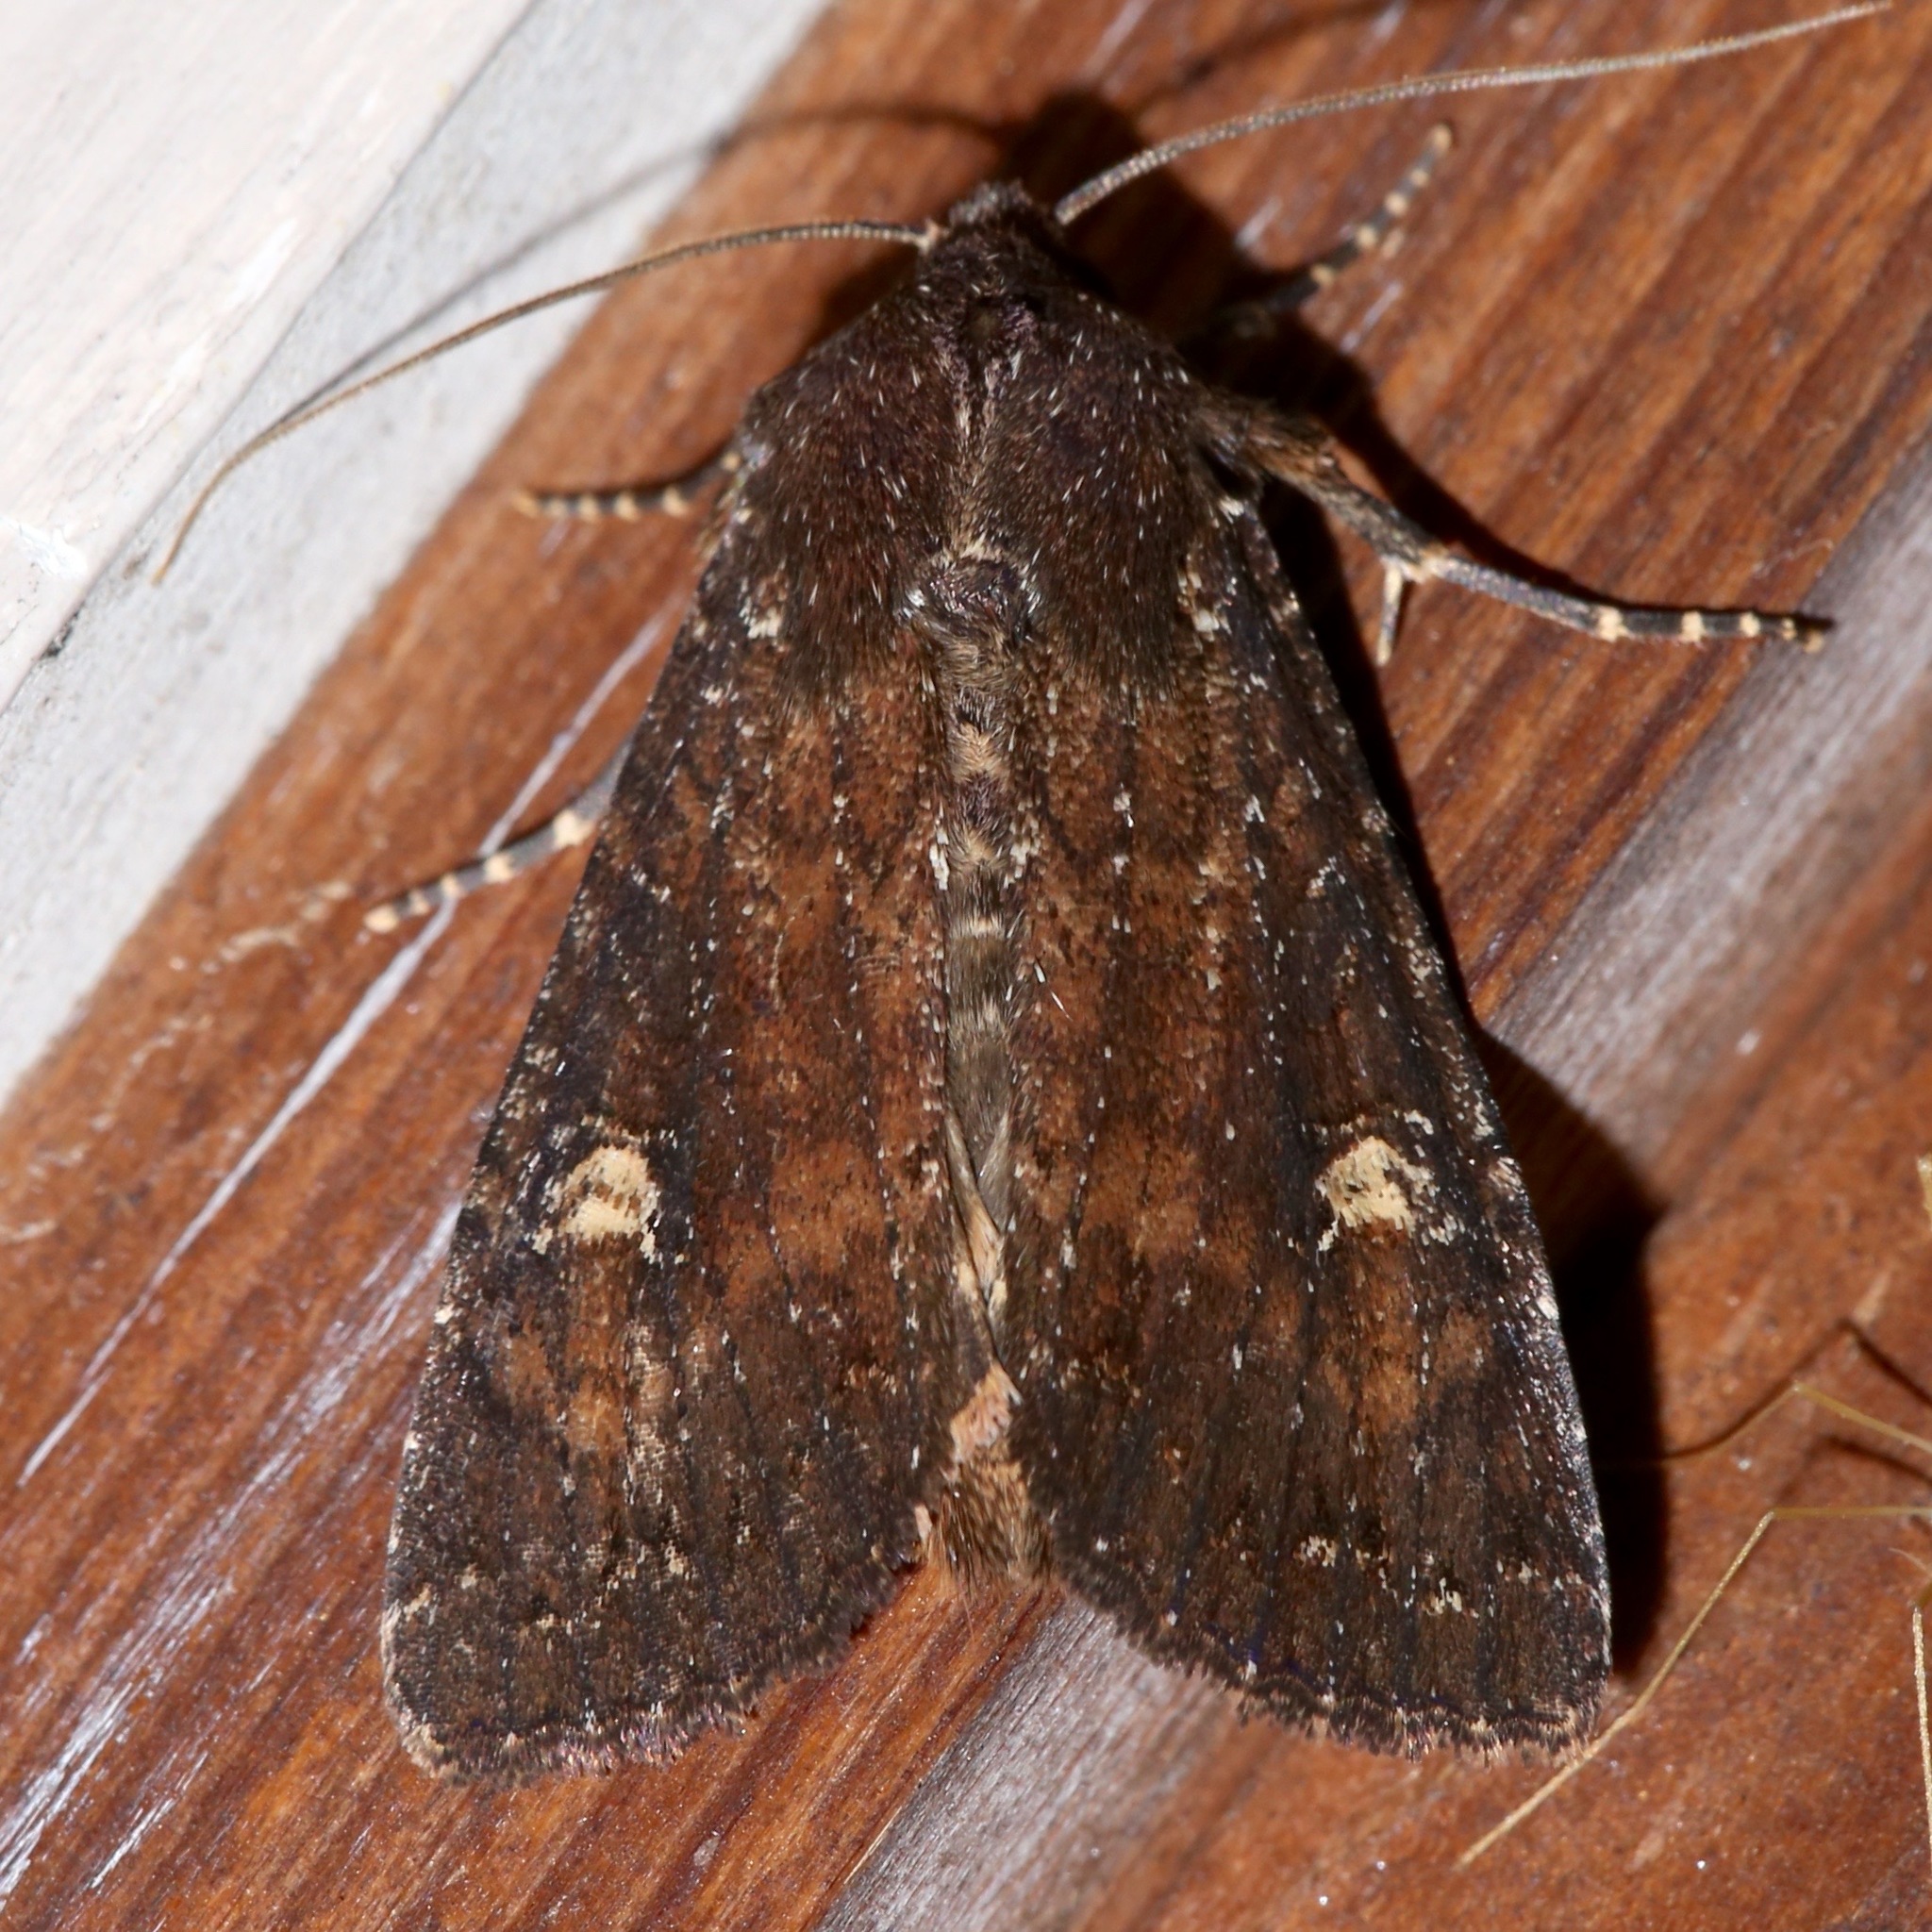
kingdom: Animalia
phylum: Arthropoda
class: Insecta
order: Lepidoptera
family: Noctuidae
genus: Apamea
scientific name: Apamea dubitans
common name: Doubtful apamea moth
